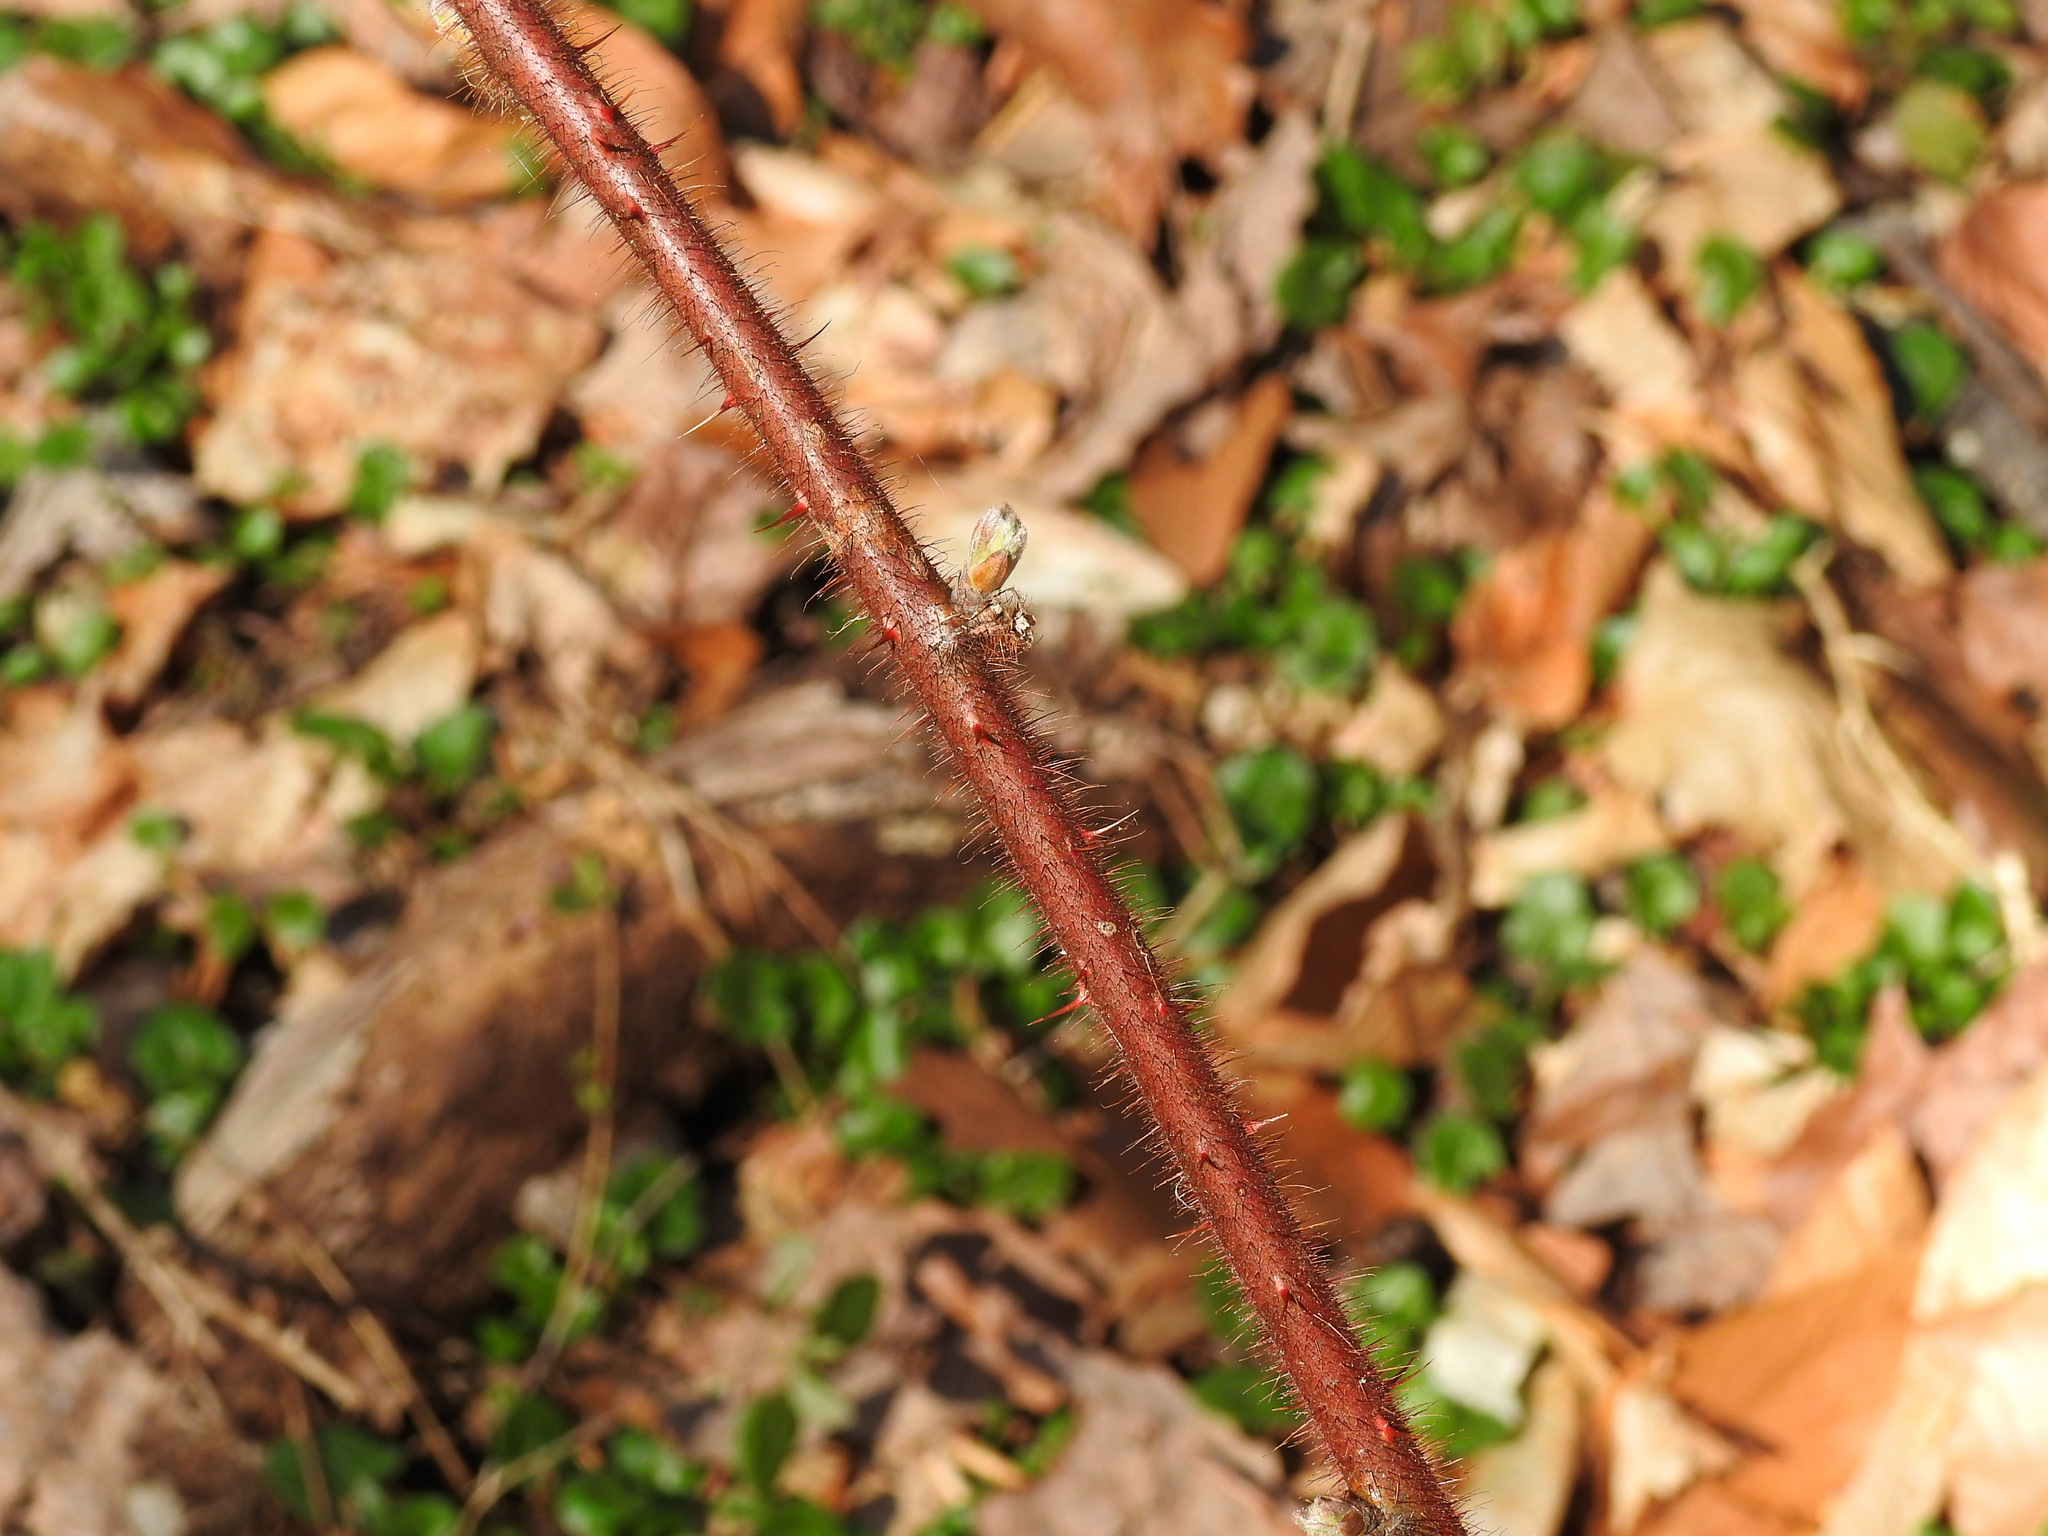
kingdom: Plantae
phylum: Tracheophyta
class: Magnoliopsida
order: Rosales
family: Rosaceae
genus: Rubus
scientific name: Rubus phoenicolasius
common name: Japanese wineberry
